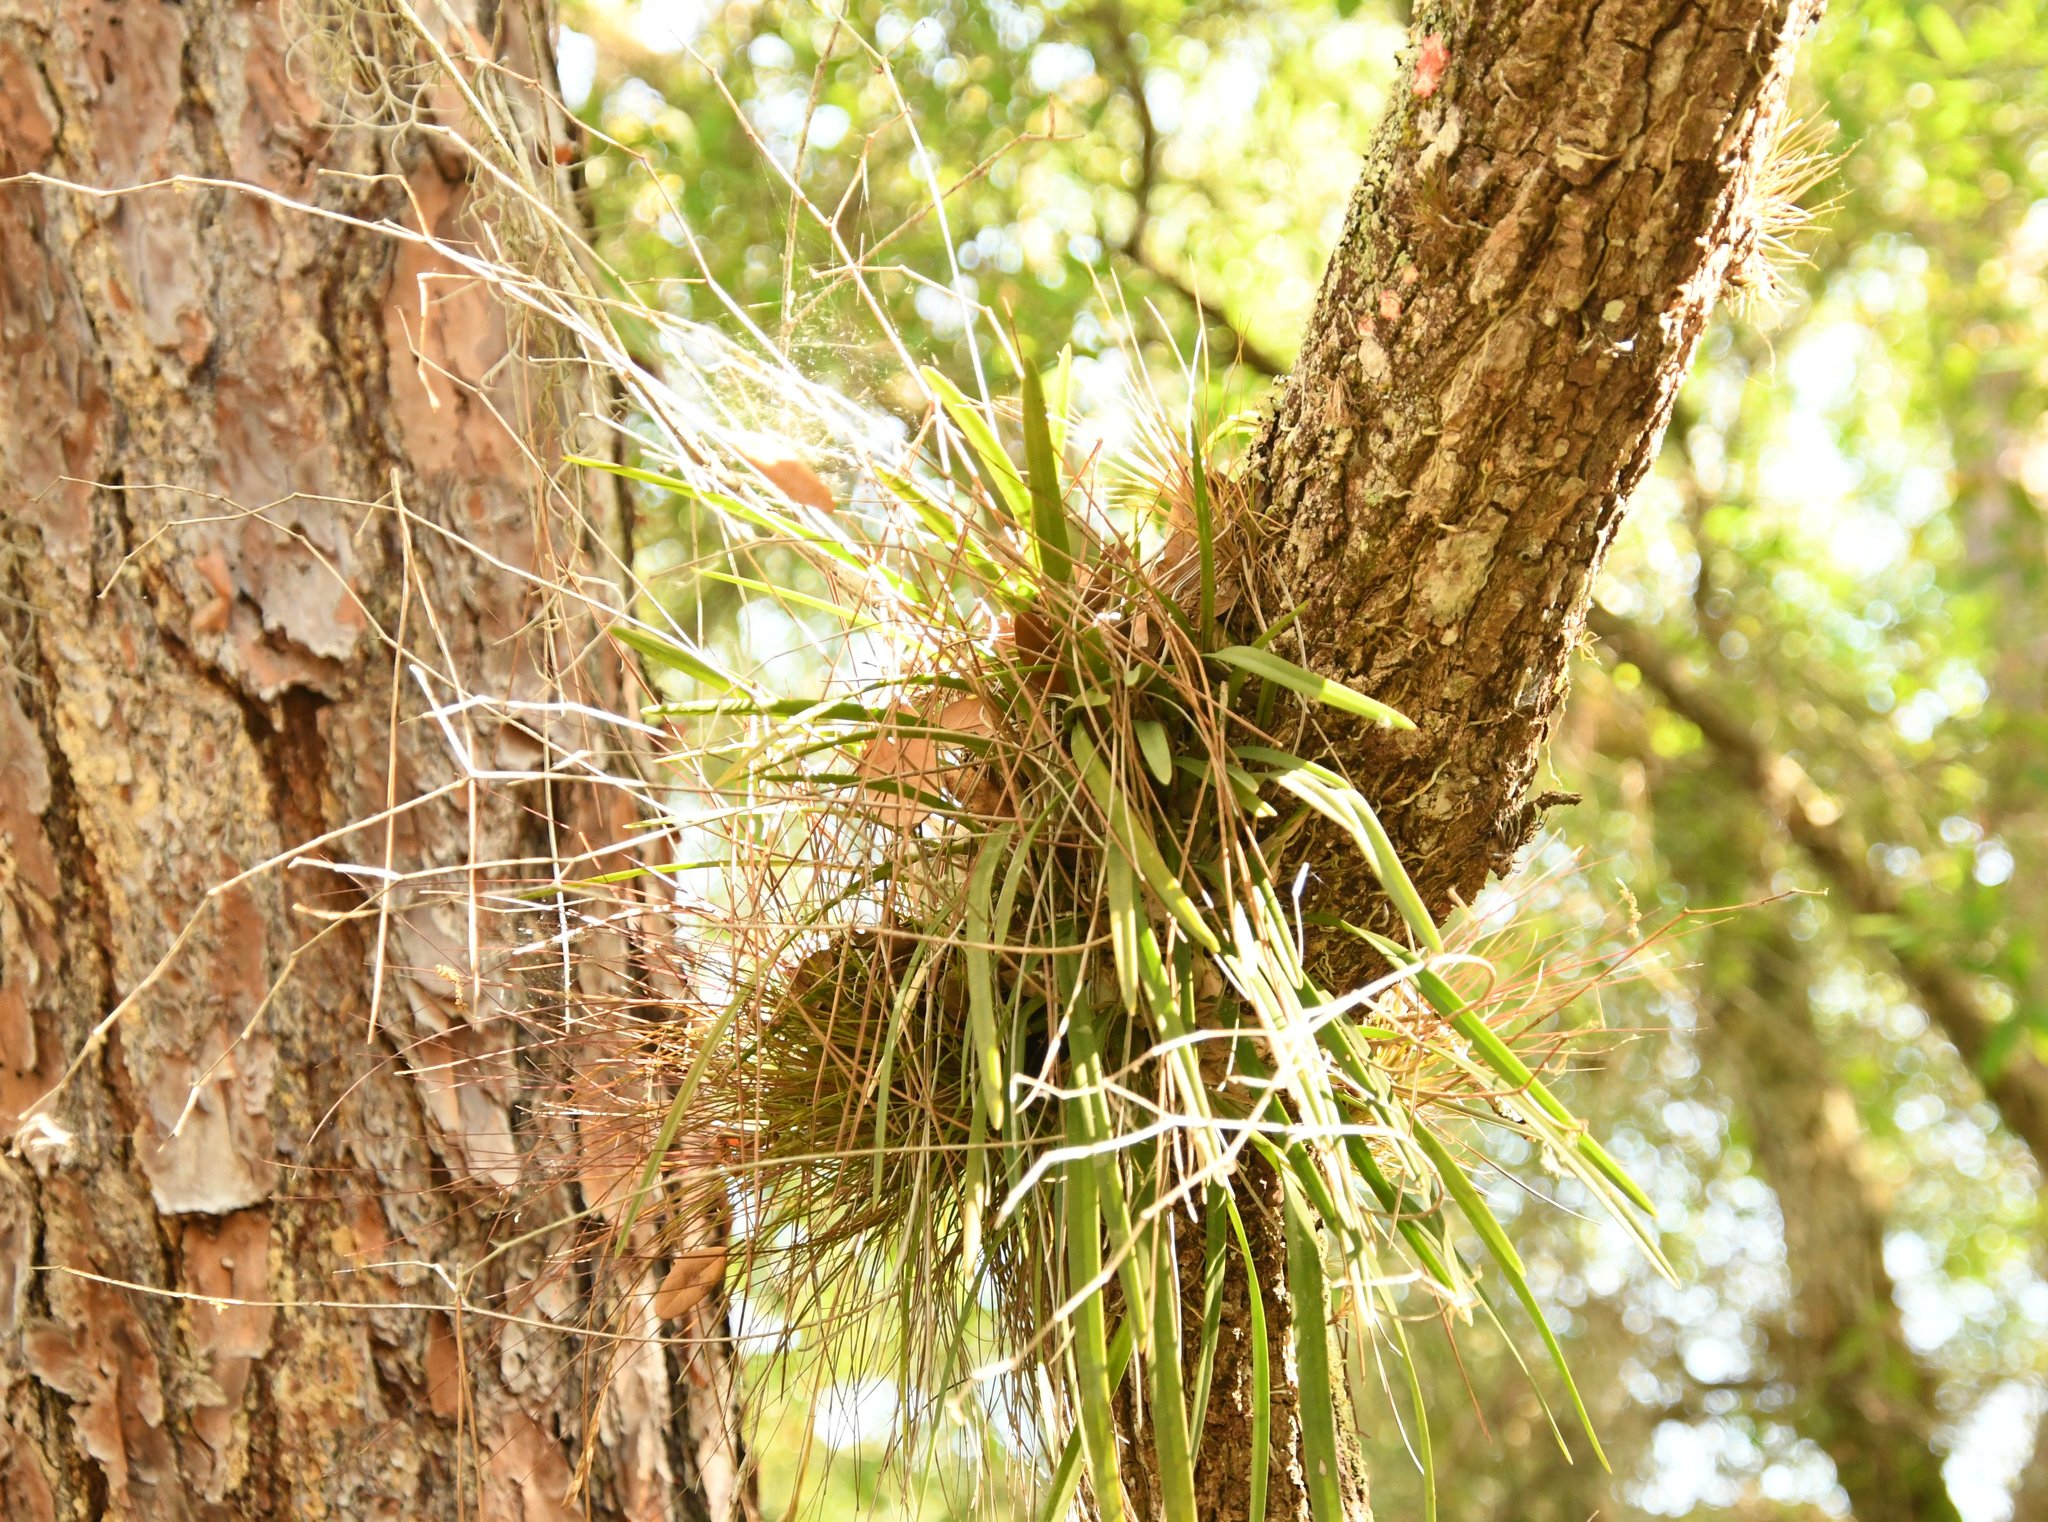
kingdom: Plantae
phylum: Tracheophyta
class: Liliopsida
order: Asparagales
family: Orchidaceae
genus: Encyclia
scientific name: Encyclia tampensis
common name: Florida butterfly orchid
